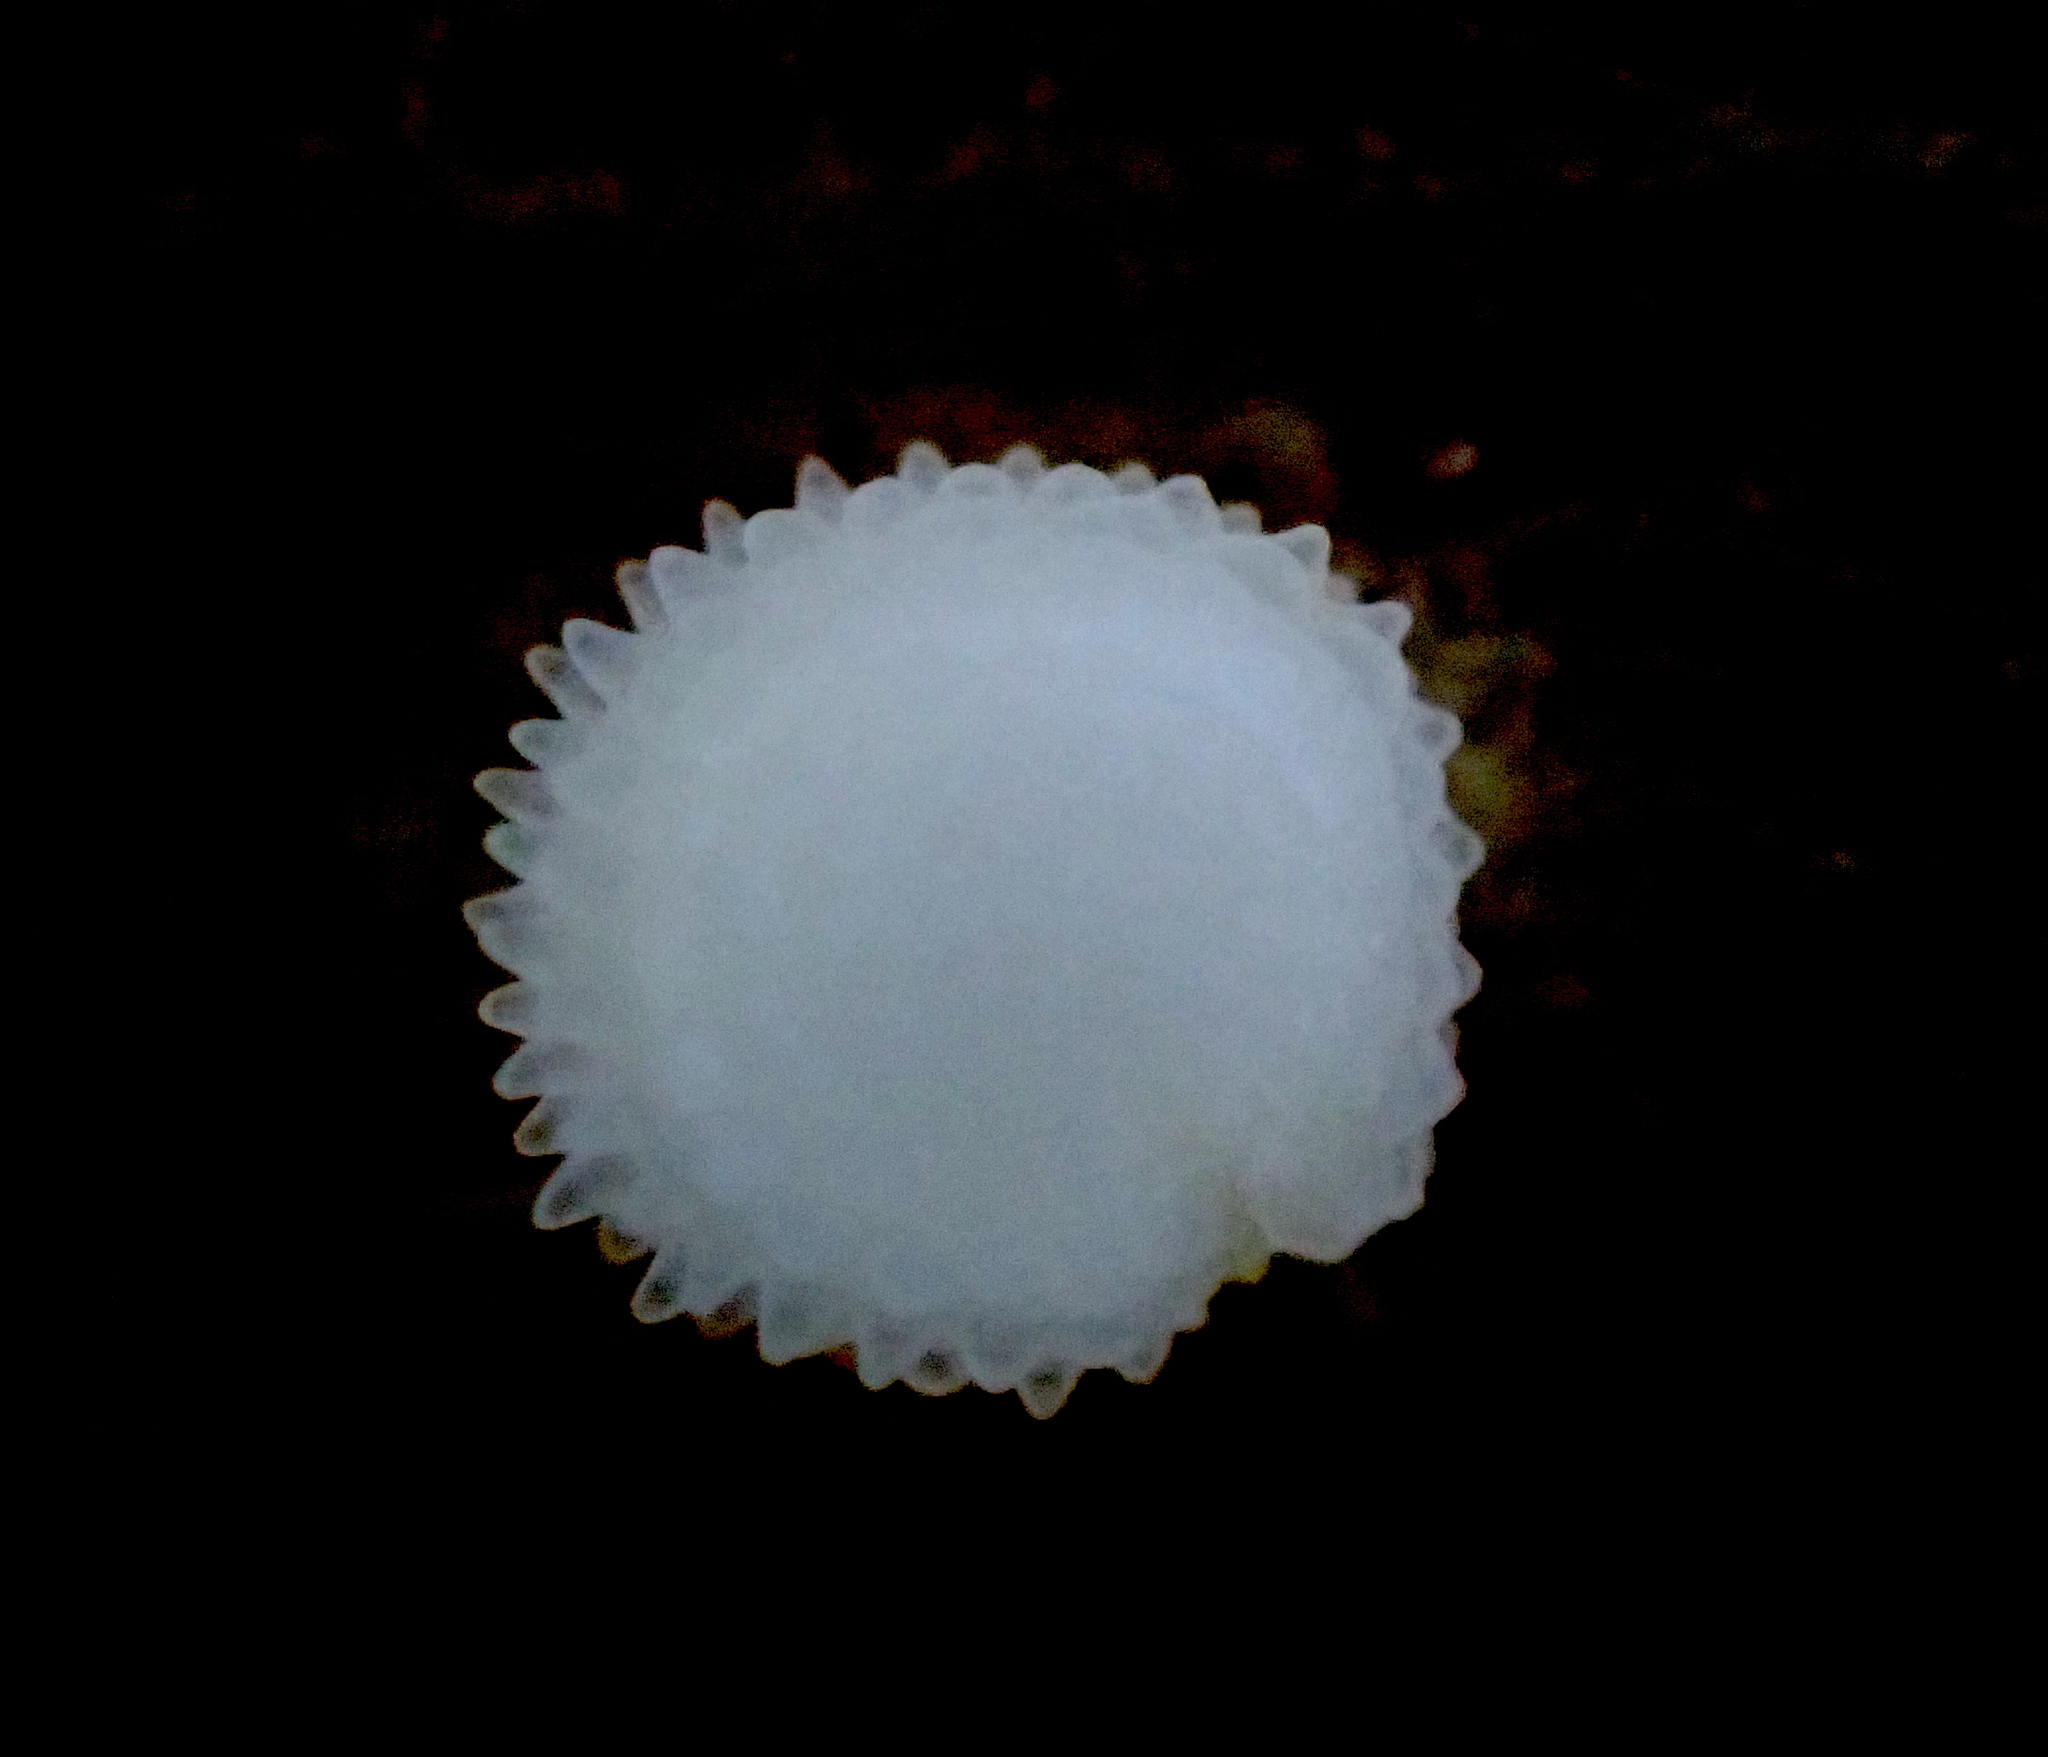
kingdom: Plantae
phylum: Tracheophyta
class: Magnoliopsida
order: Caryophyllales
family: Caryophyllaceae
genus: Stellaria
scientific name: Stellaria ruderalis
